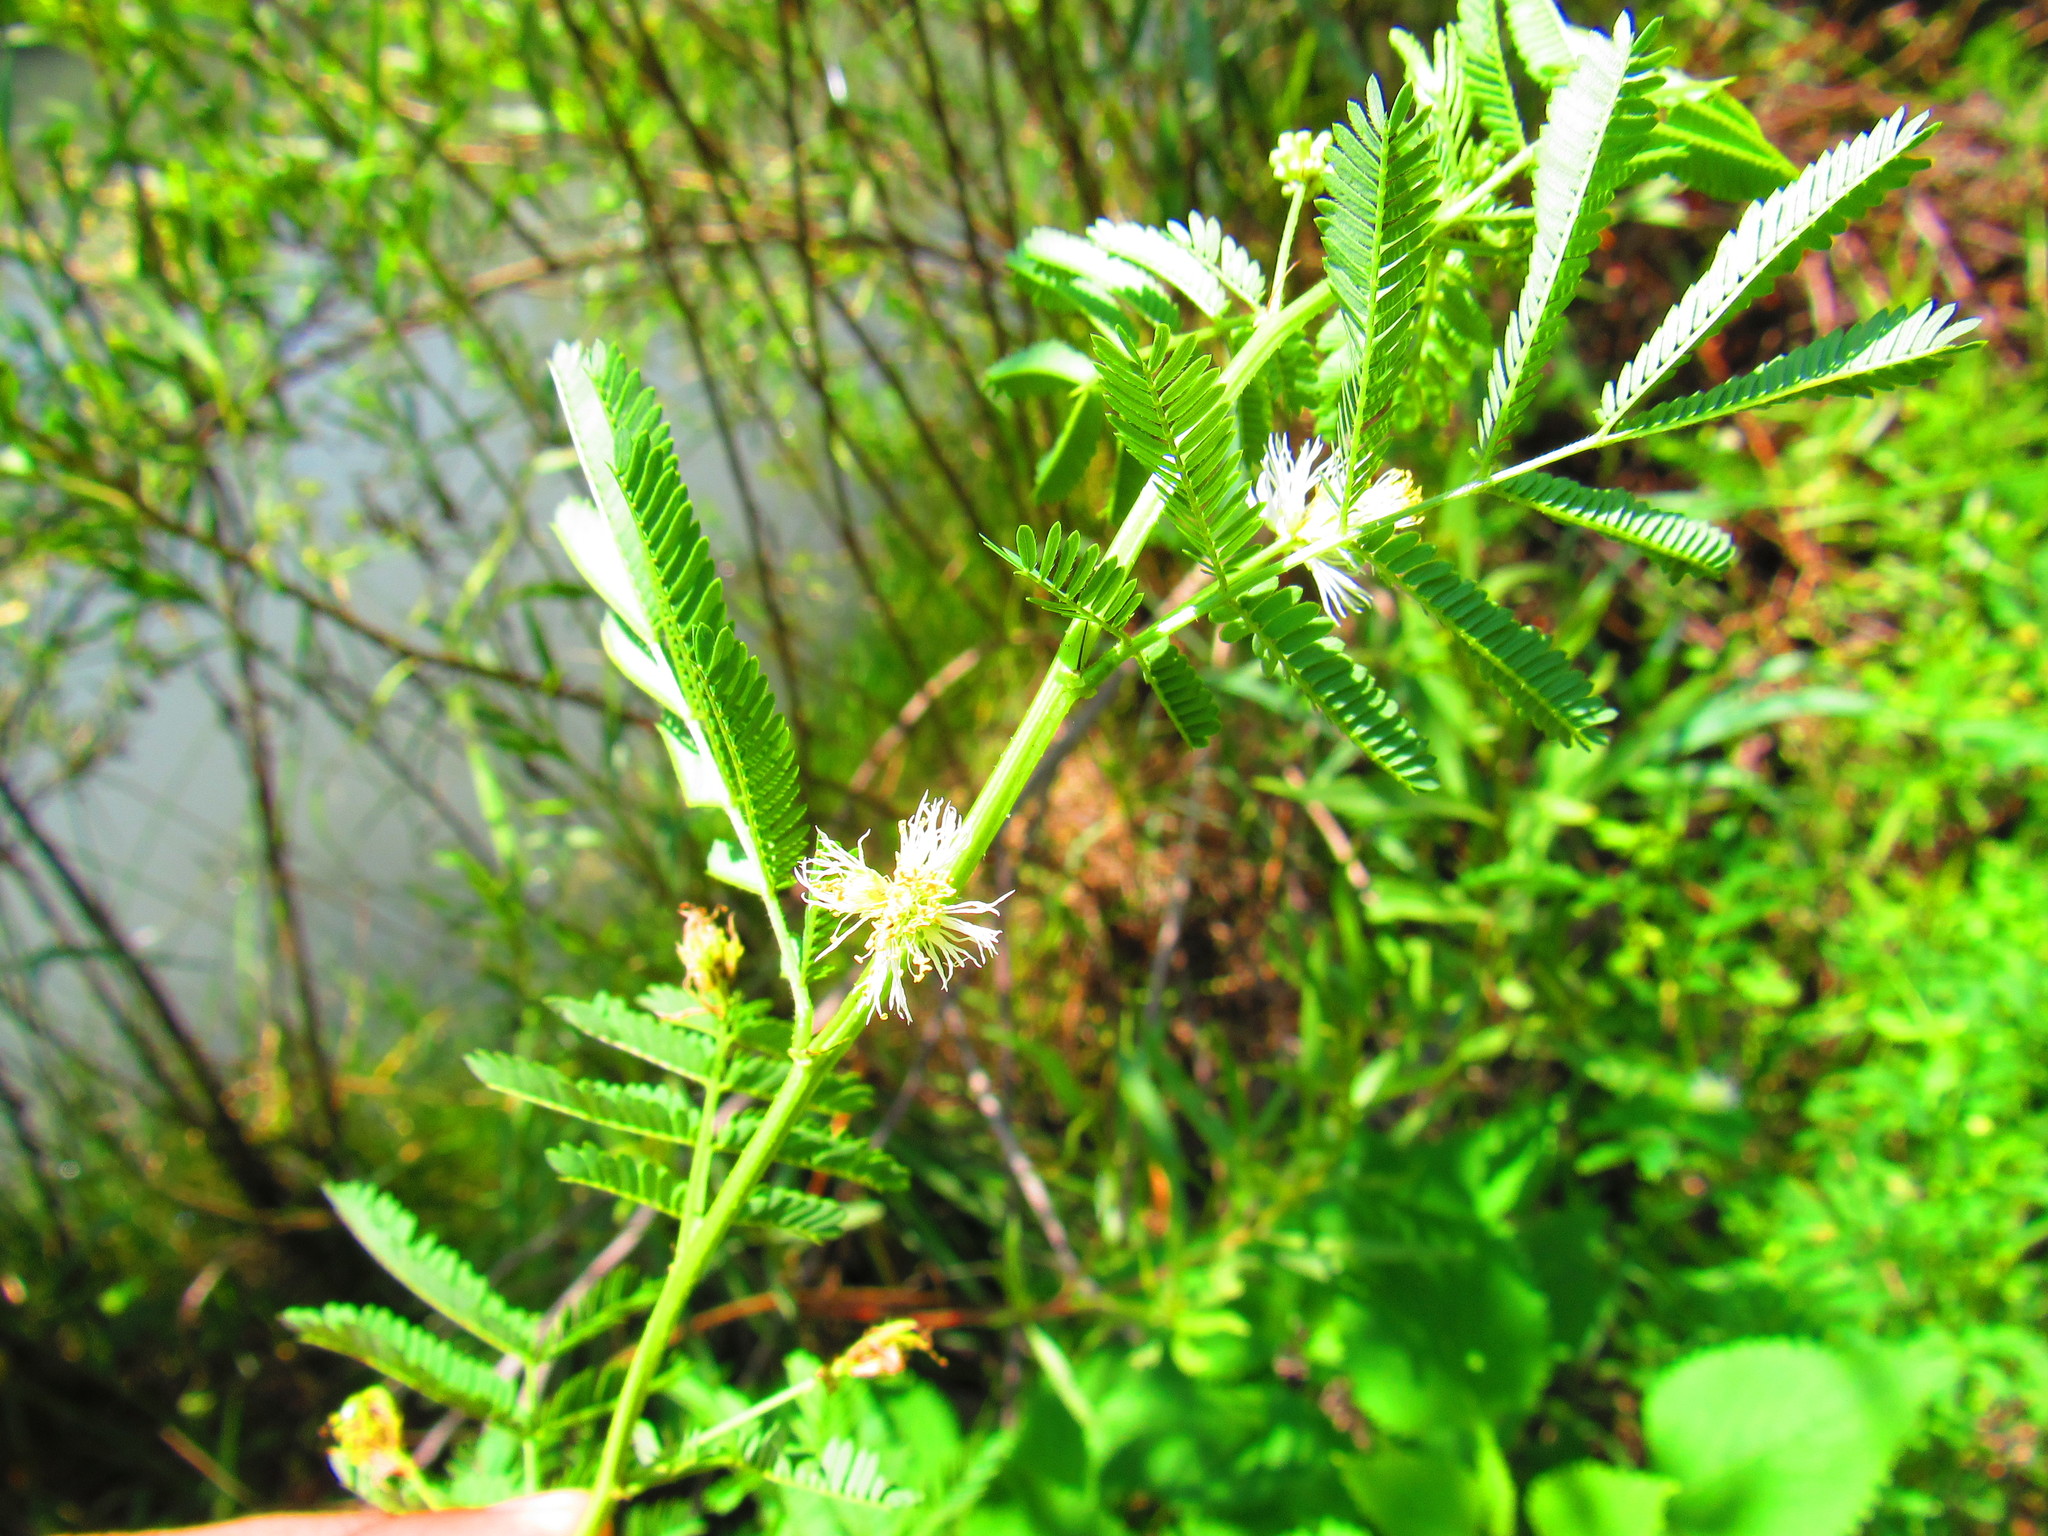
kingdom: Plantae
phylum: Tracheophyta
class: Magnoliopsida
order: Fabales
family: Fabaceae
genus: Mimosa
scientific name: Mimosa texana
